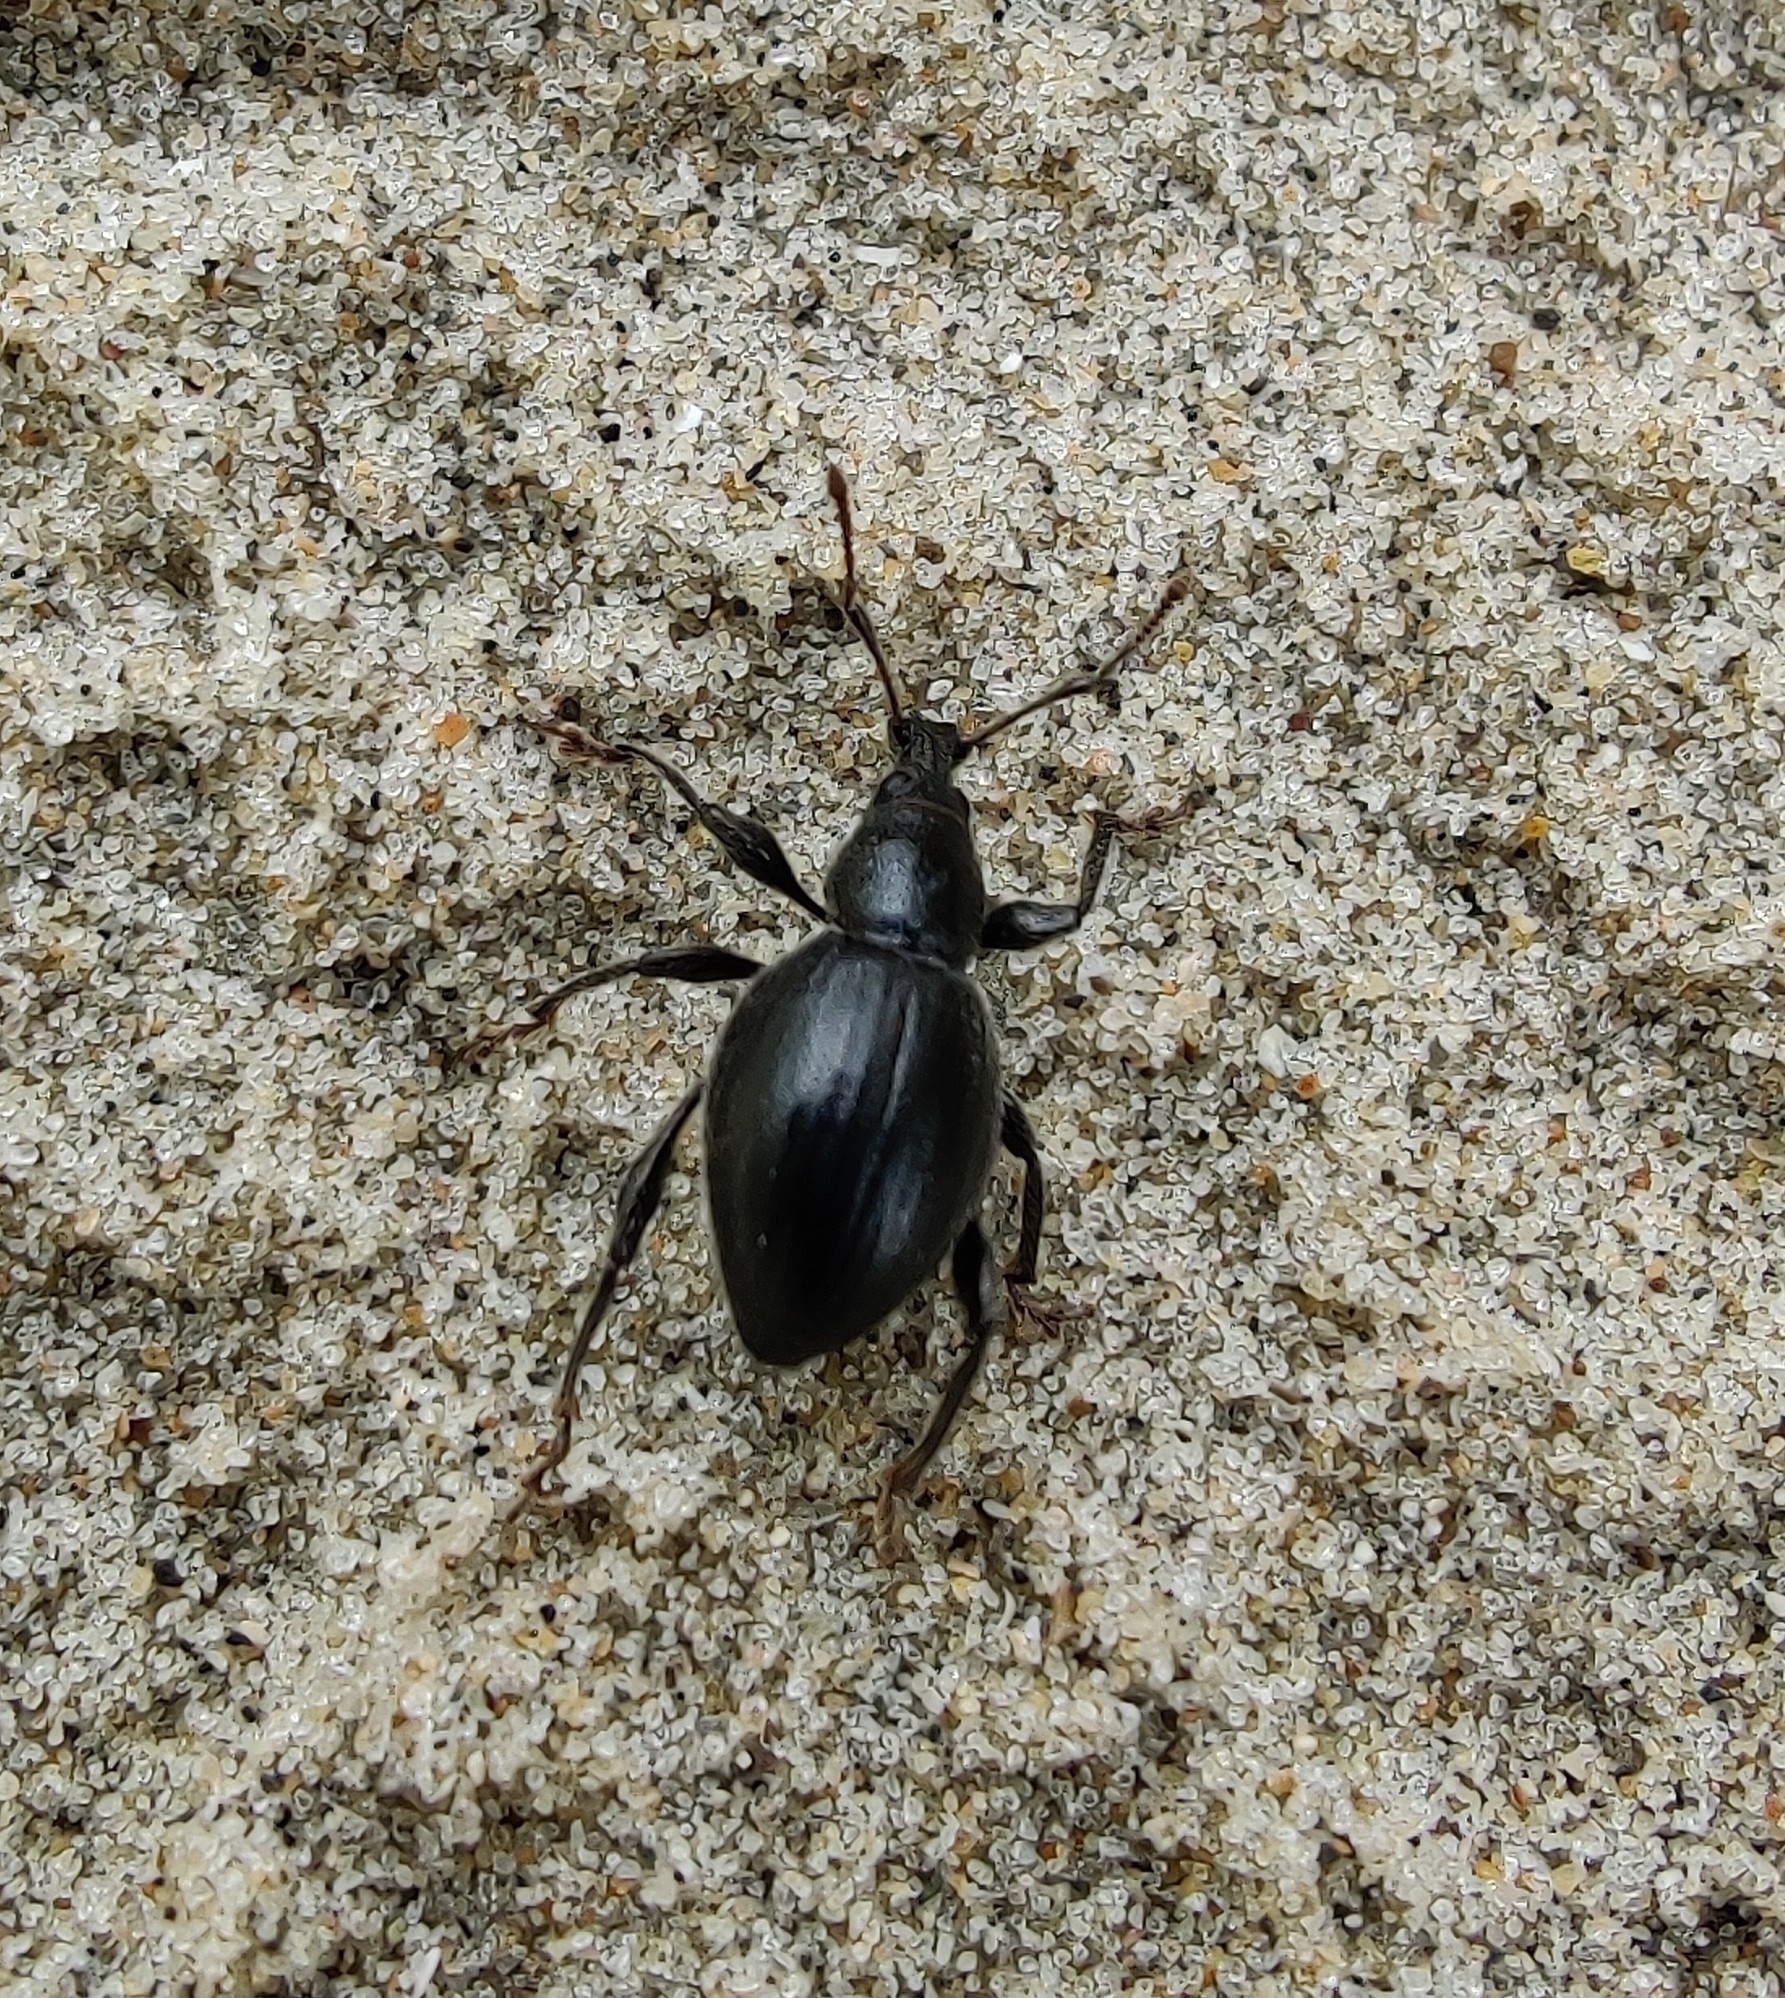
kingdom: Animalia
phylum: Arthropoda
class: Insecta
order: Coleoptera
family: Curculionidae
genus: Otiorhynchus
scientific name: Otiorhynchus atroapterus
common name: Black marram weevil
